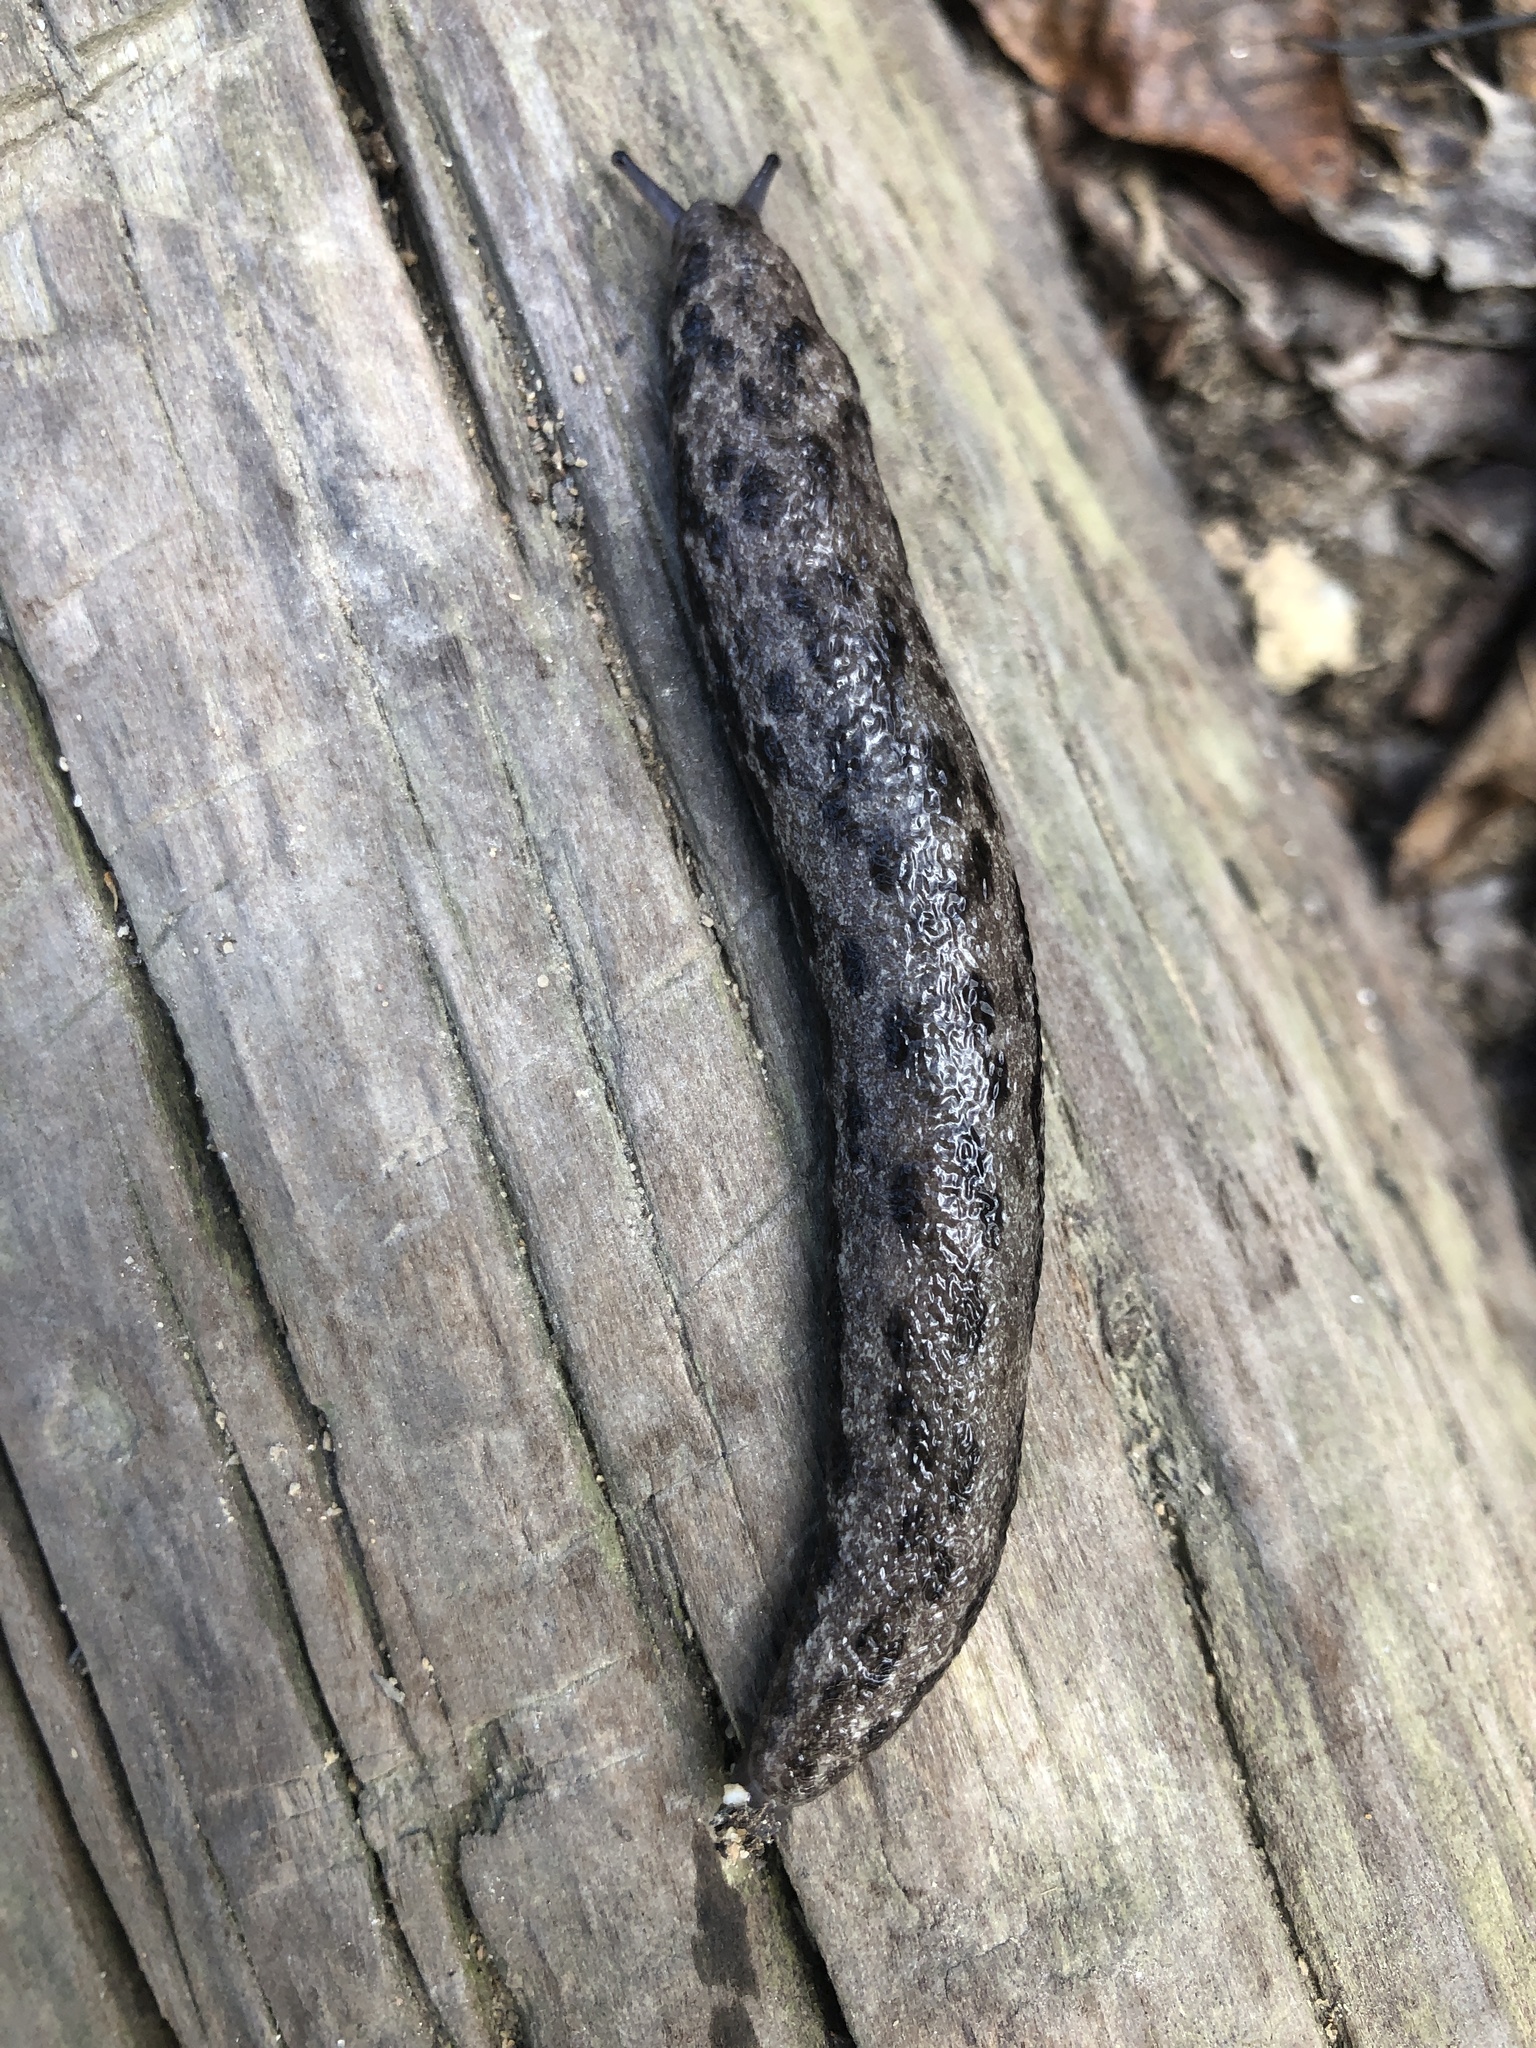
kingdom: Animalia
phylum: Mollusca
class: Gastropoda
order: Stylommatophora
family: Philomycidae
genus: Megapallifera
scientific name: Megapallifera mutabilis
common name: Changeable mantleslug
